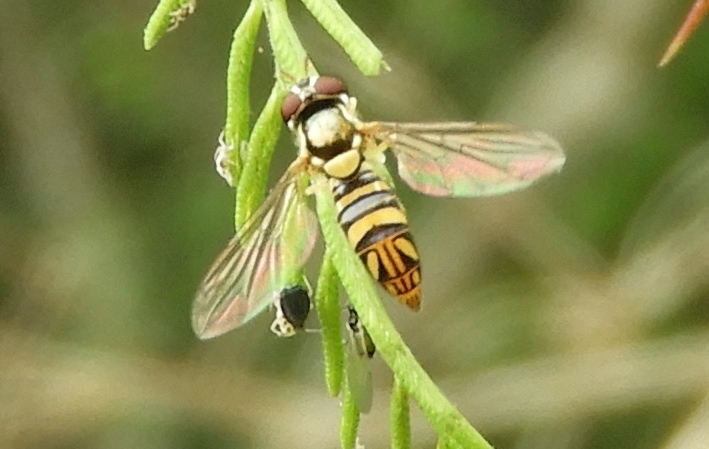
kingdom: Animalia
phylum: Arthropoda
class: Insecta
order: Diptera
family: Syrphidae
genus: Allograpta
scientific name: Allograpta exotica
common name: Syrphid fly
